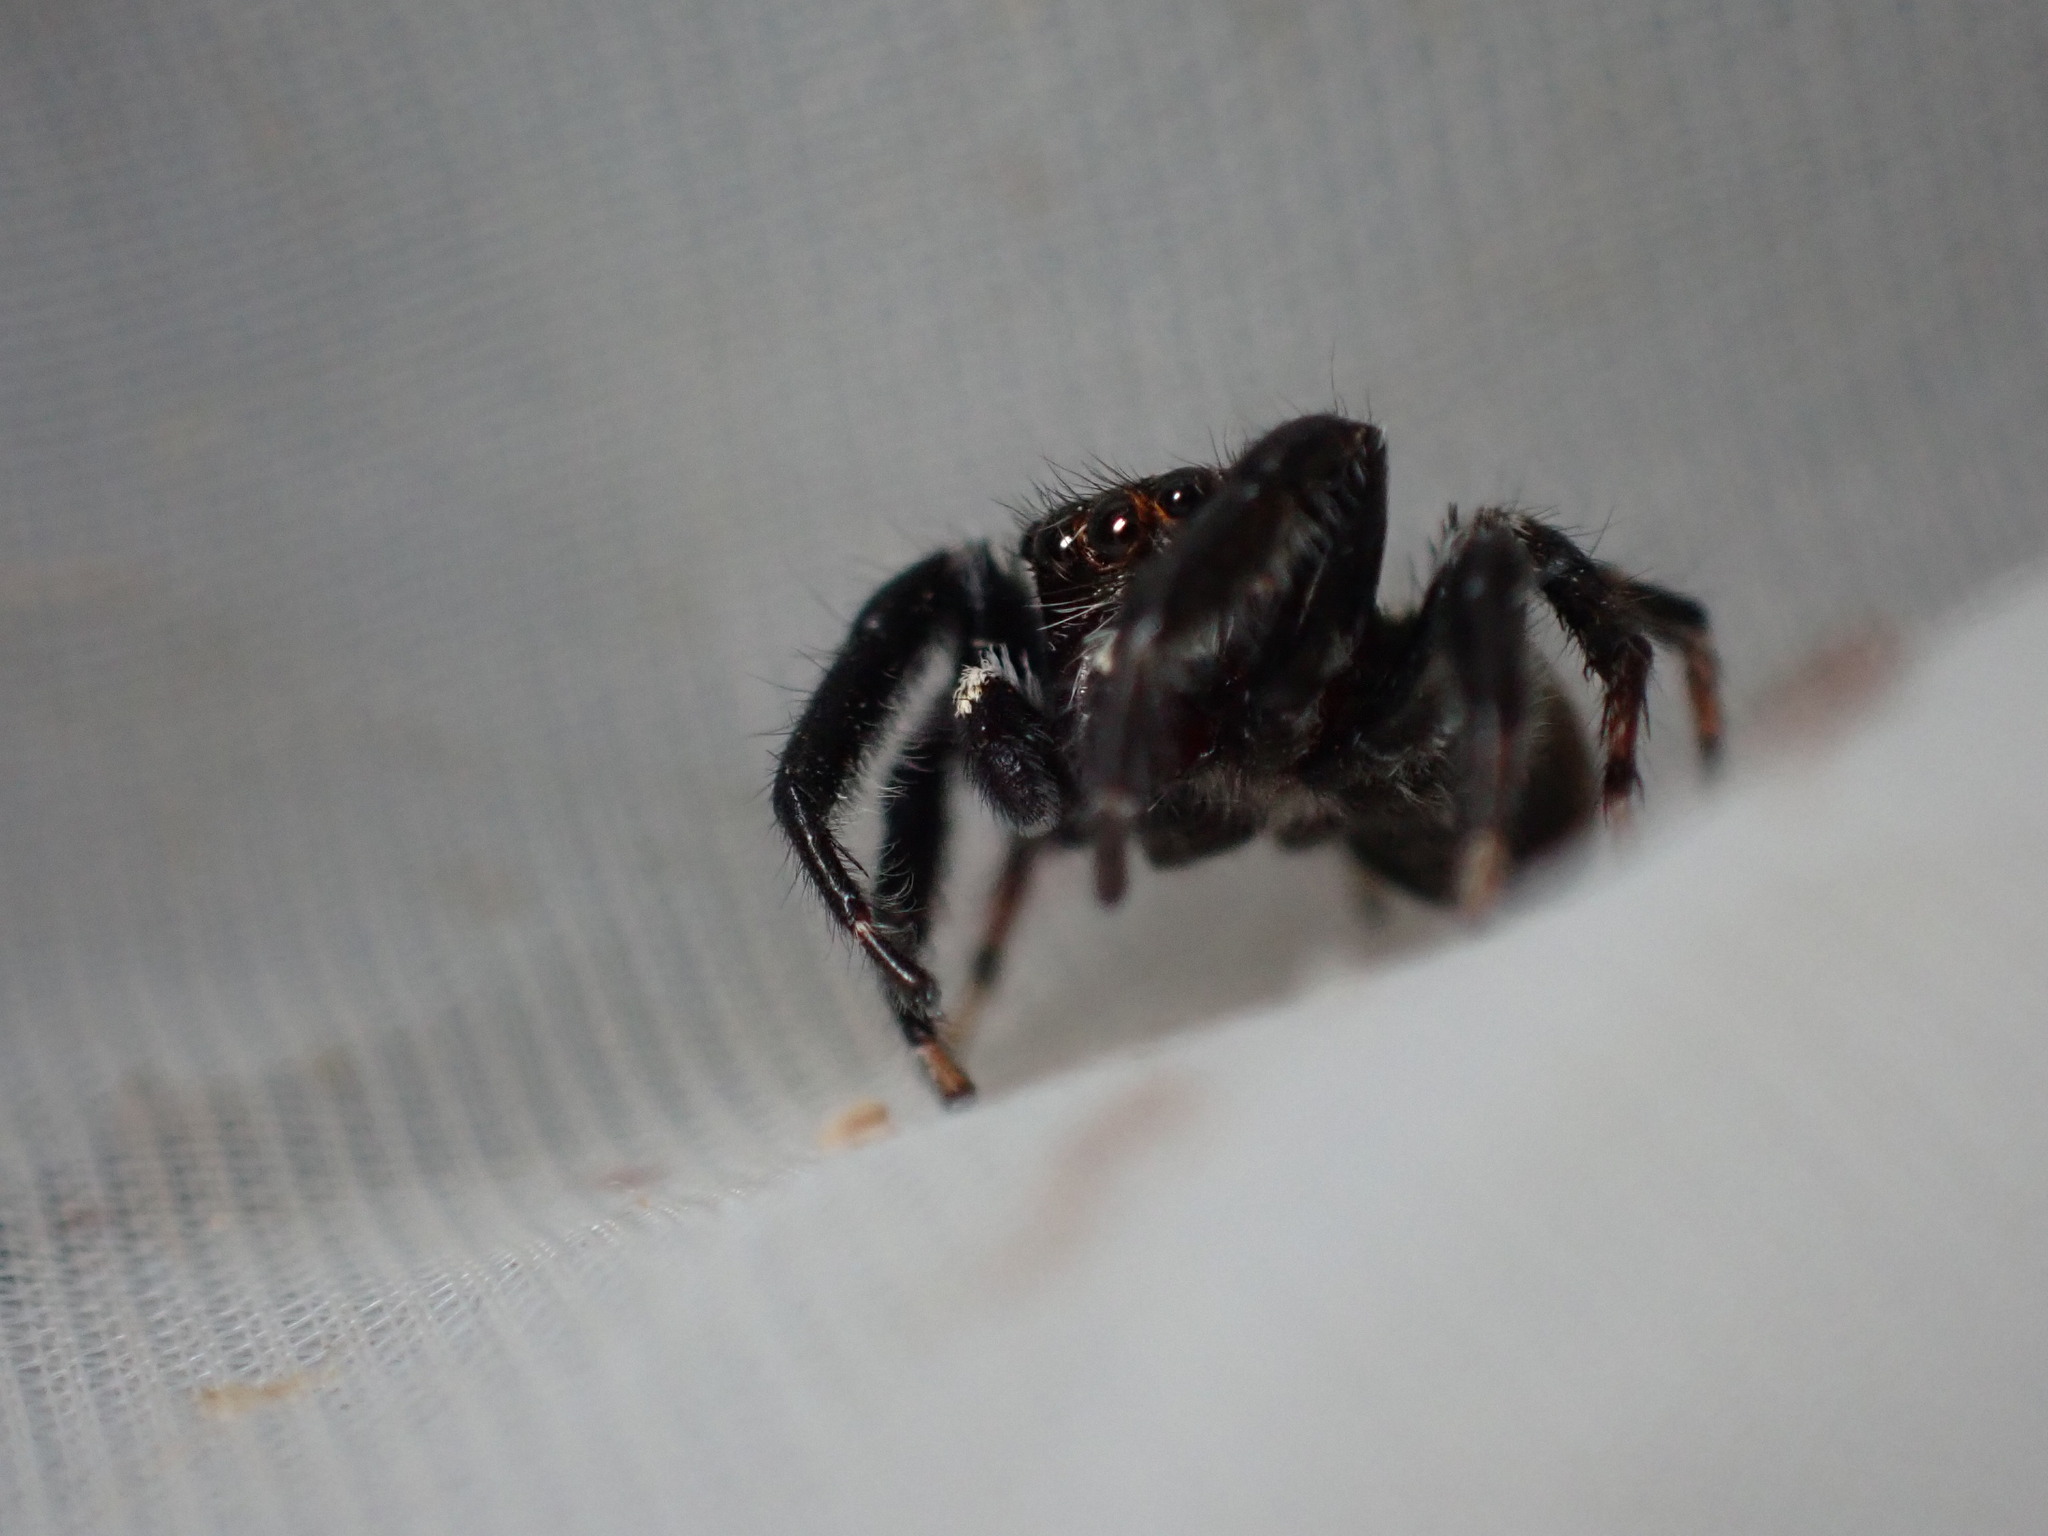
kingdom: Animalia
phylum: Arthropoda
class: Arachnida
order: Araneae
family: Salticidae
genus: Evarcha
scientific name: Evarcha jucunda
